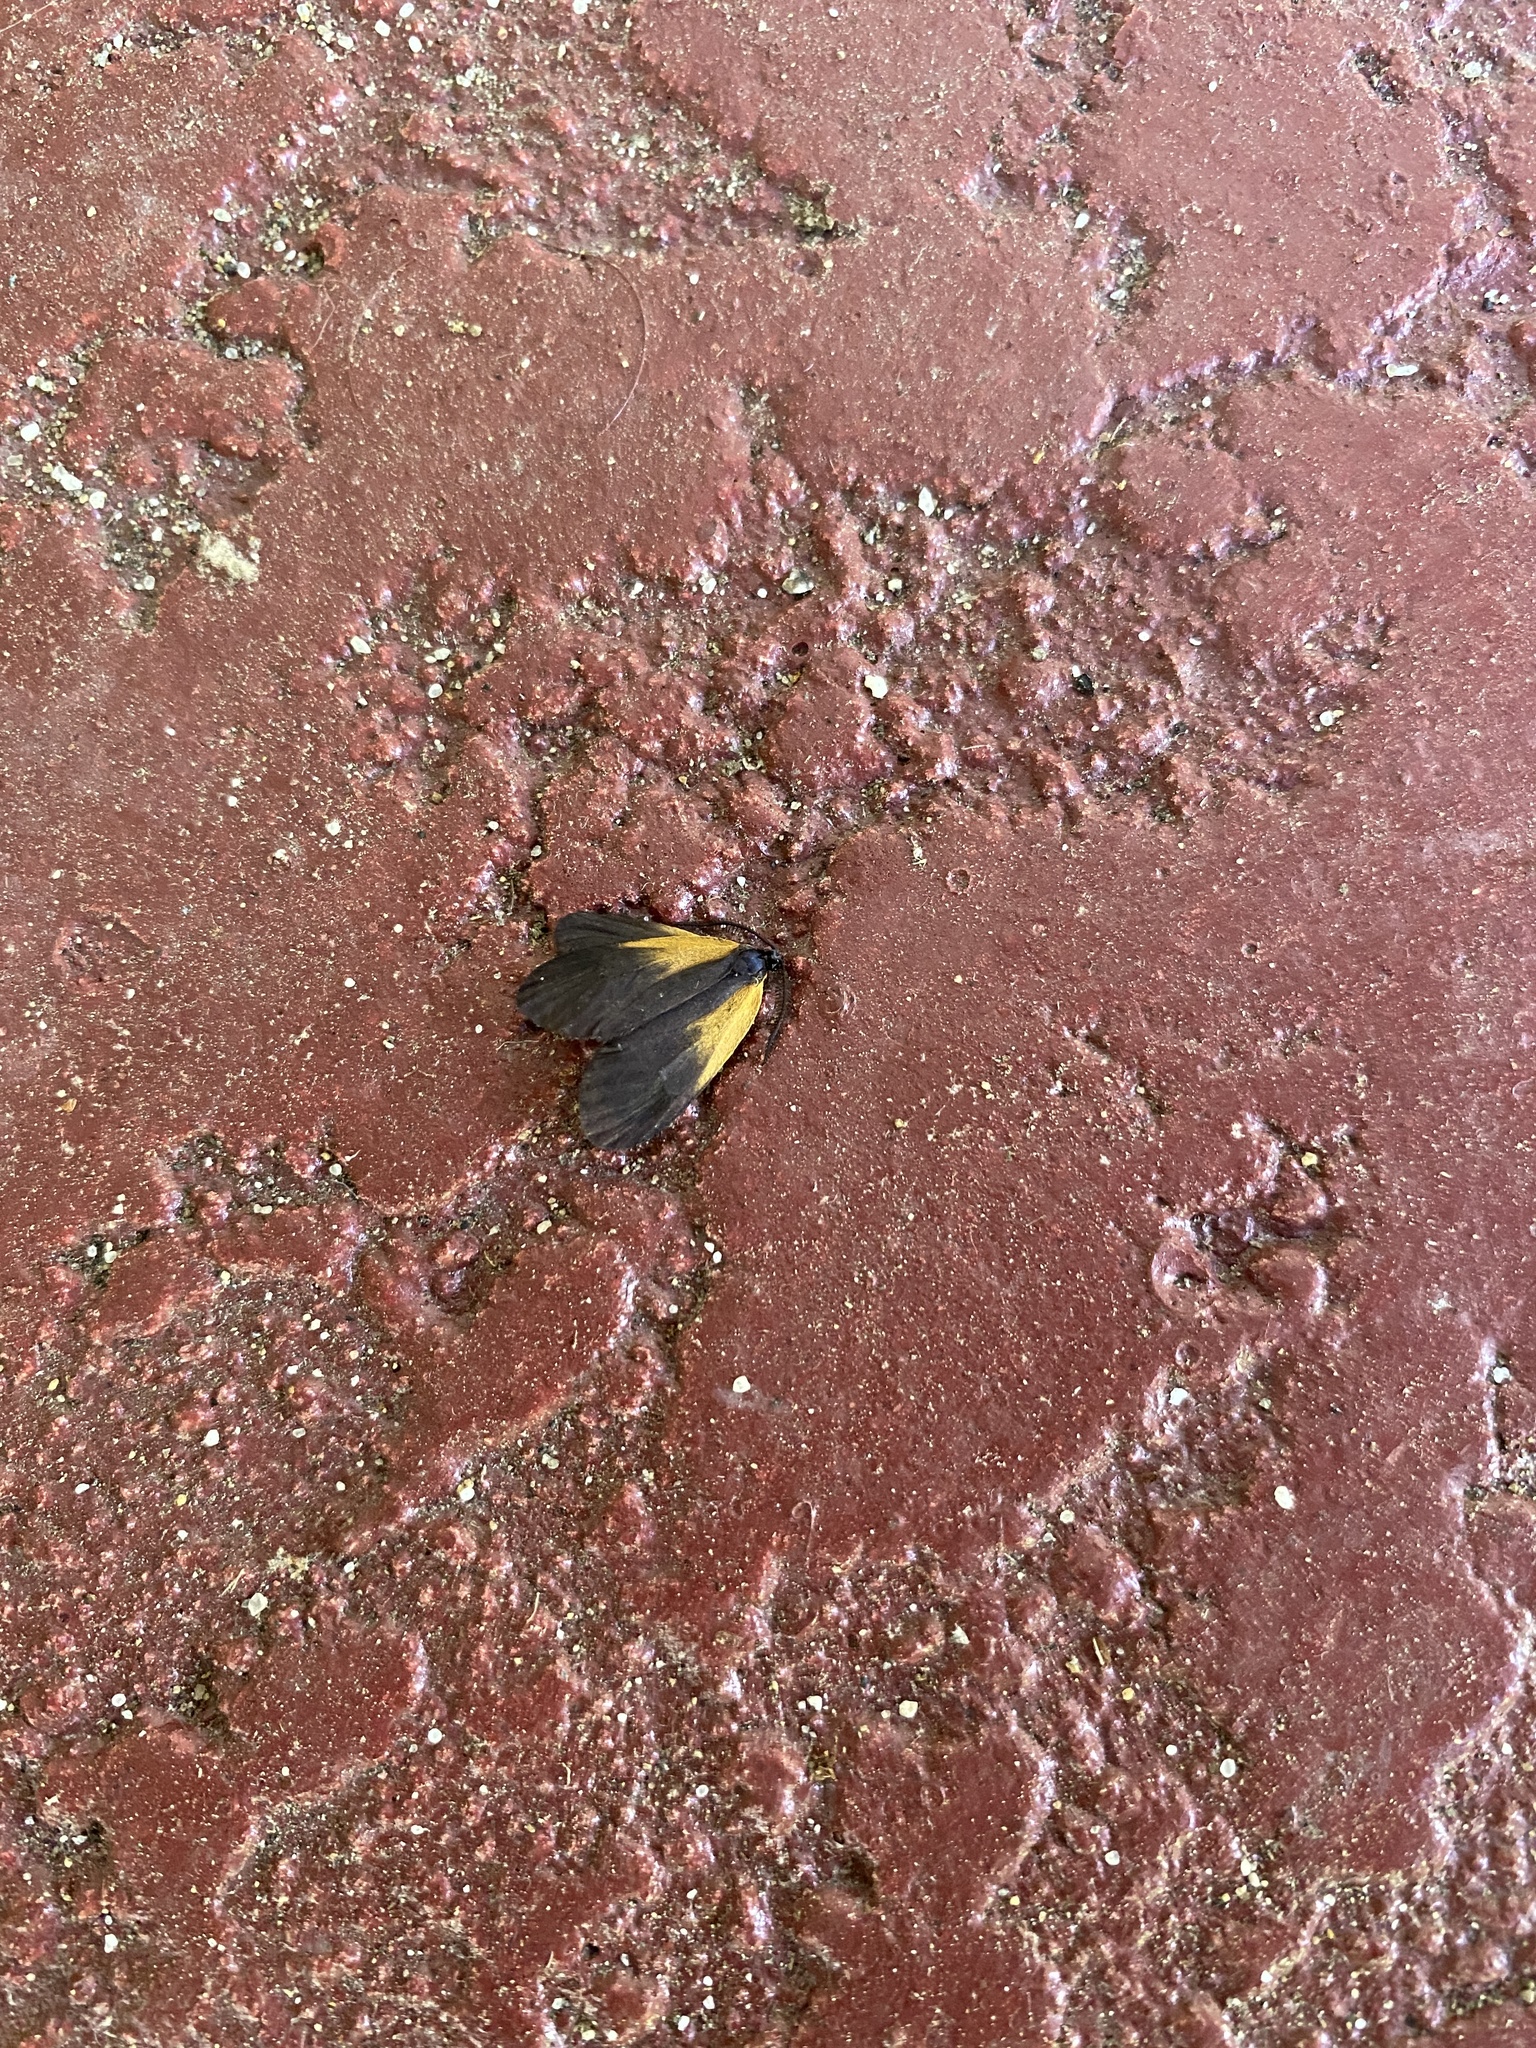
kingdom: Animalia
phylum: Arthropoda
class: Insecta
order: Lepidoptera
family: Zygaenidae
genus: Malthaca
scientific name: Malthaca dimidiata
